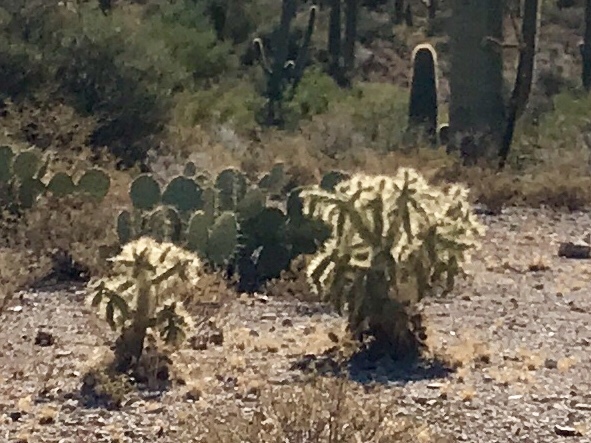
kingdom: Plantae
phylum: Tracheophyta
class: Magnoliopsida
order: Caryophyllales
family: Cactaceae
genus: Cylindropuntia
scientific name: Cylindropuntia fulgida
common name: Jumping cholla
